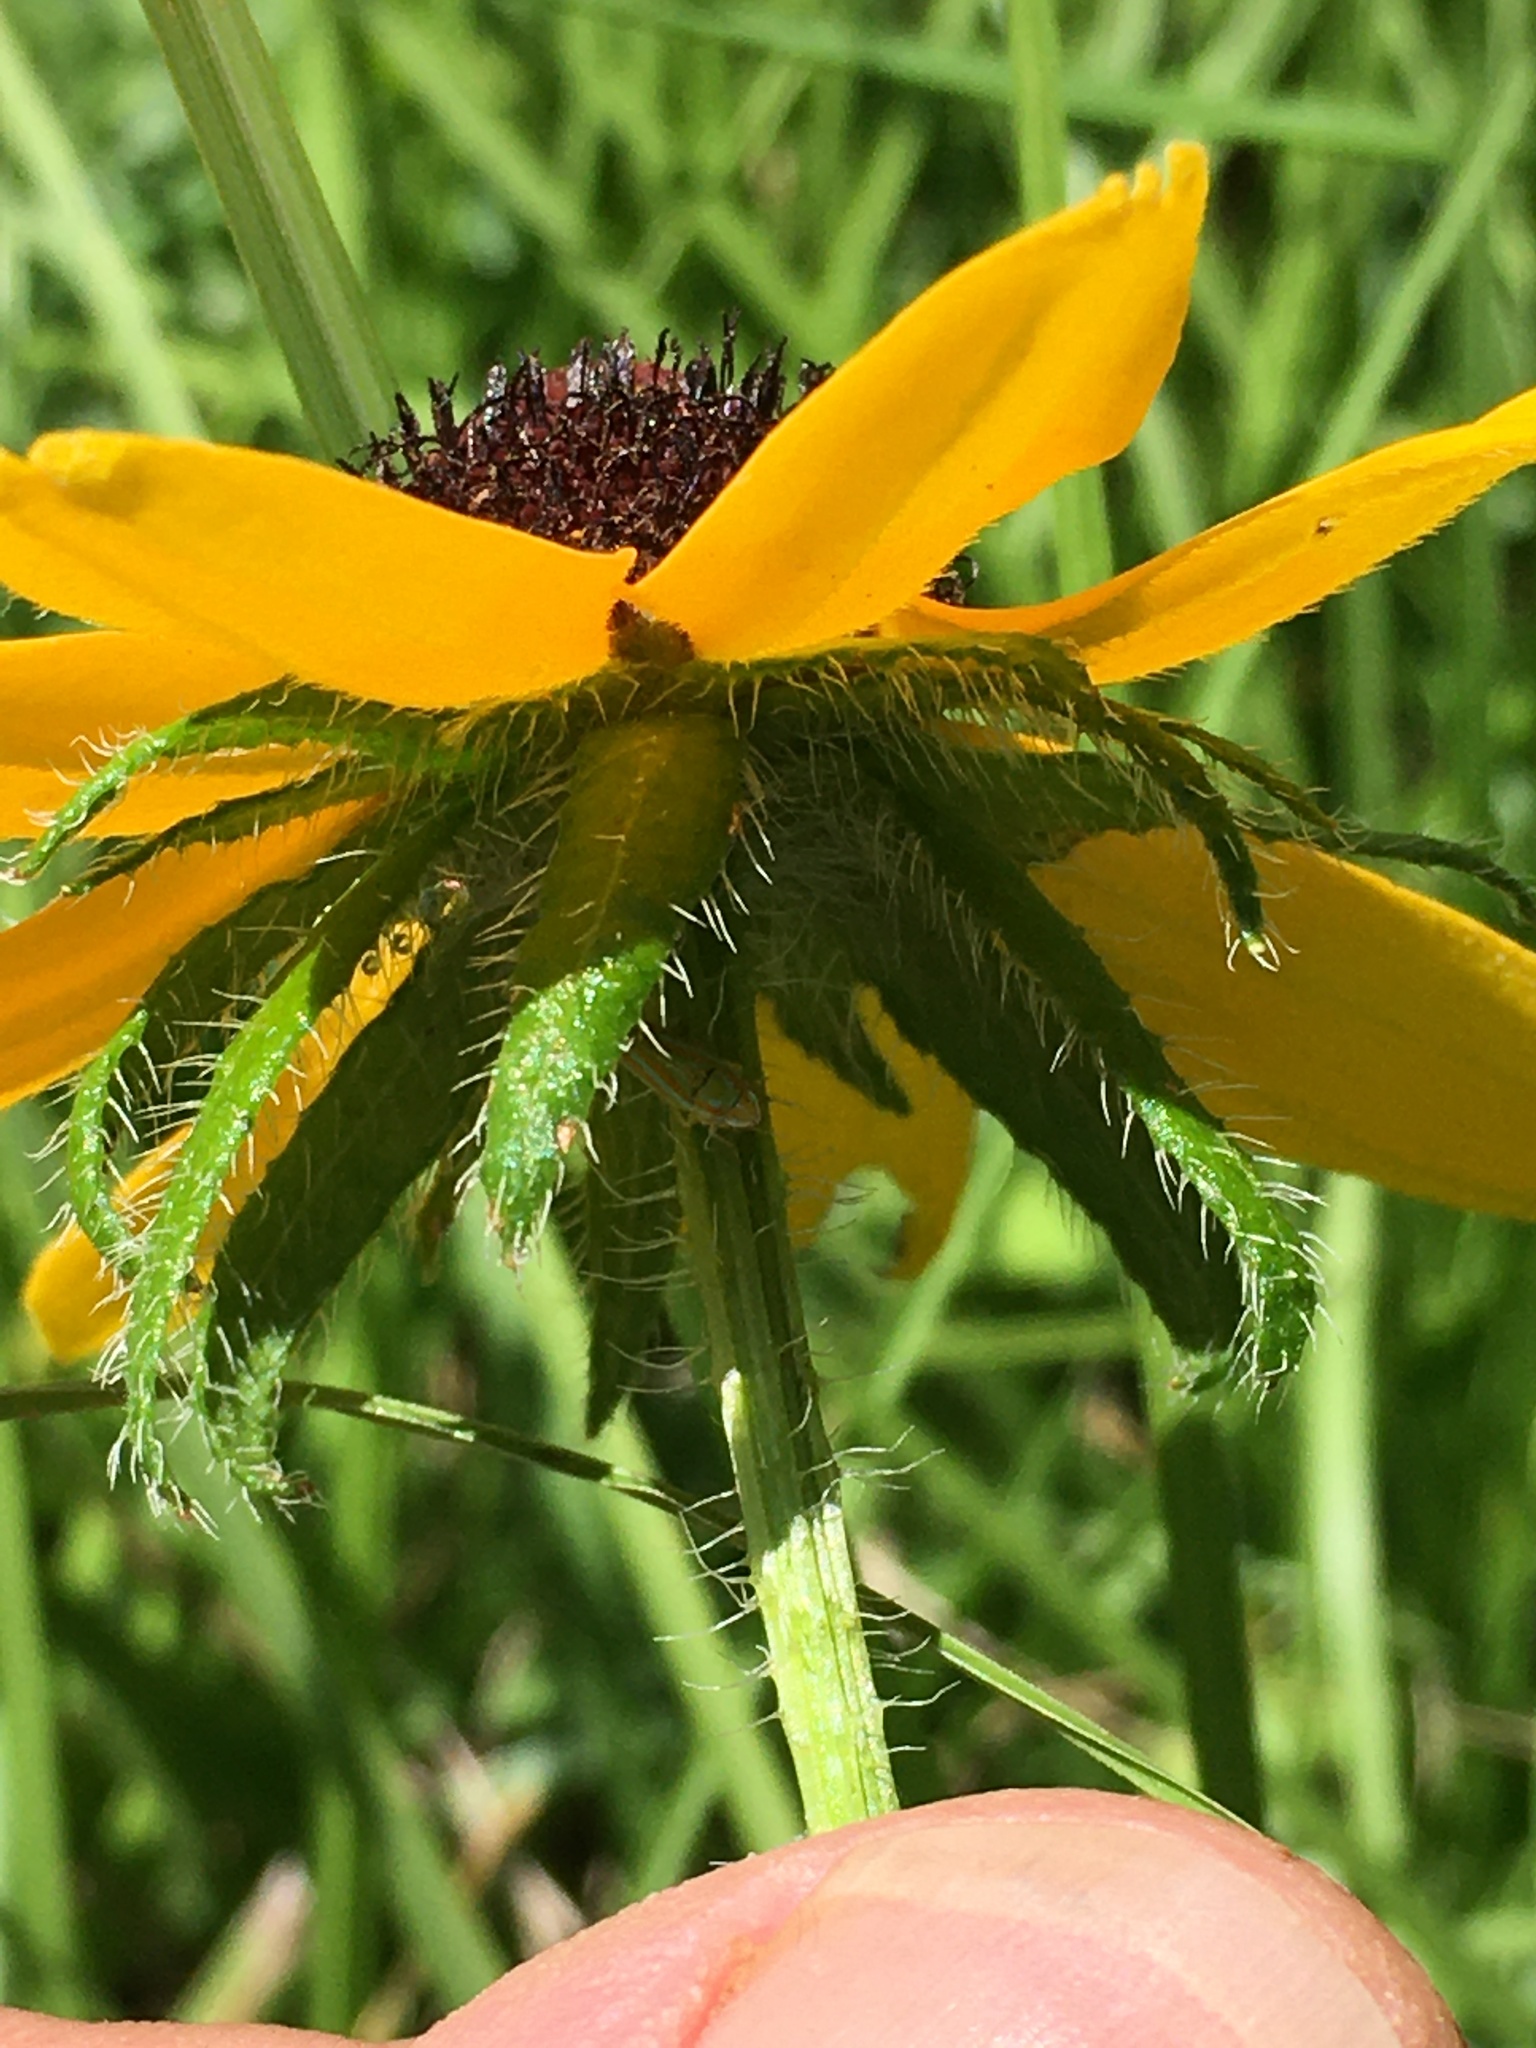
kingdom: Plantae
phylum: Tracheophyta
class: Magnoliopsida
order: Asterales
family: Asteraceae
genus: Rudbeckia
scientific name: Rudbeckia hirta
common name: Black-eyed-susan
